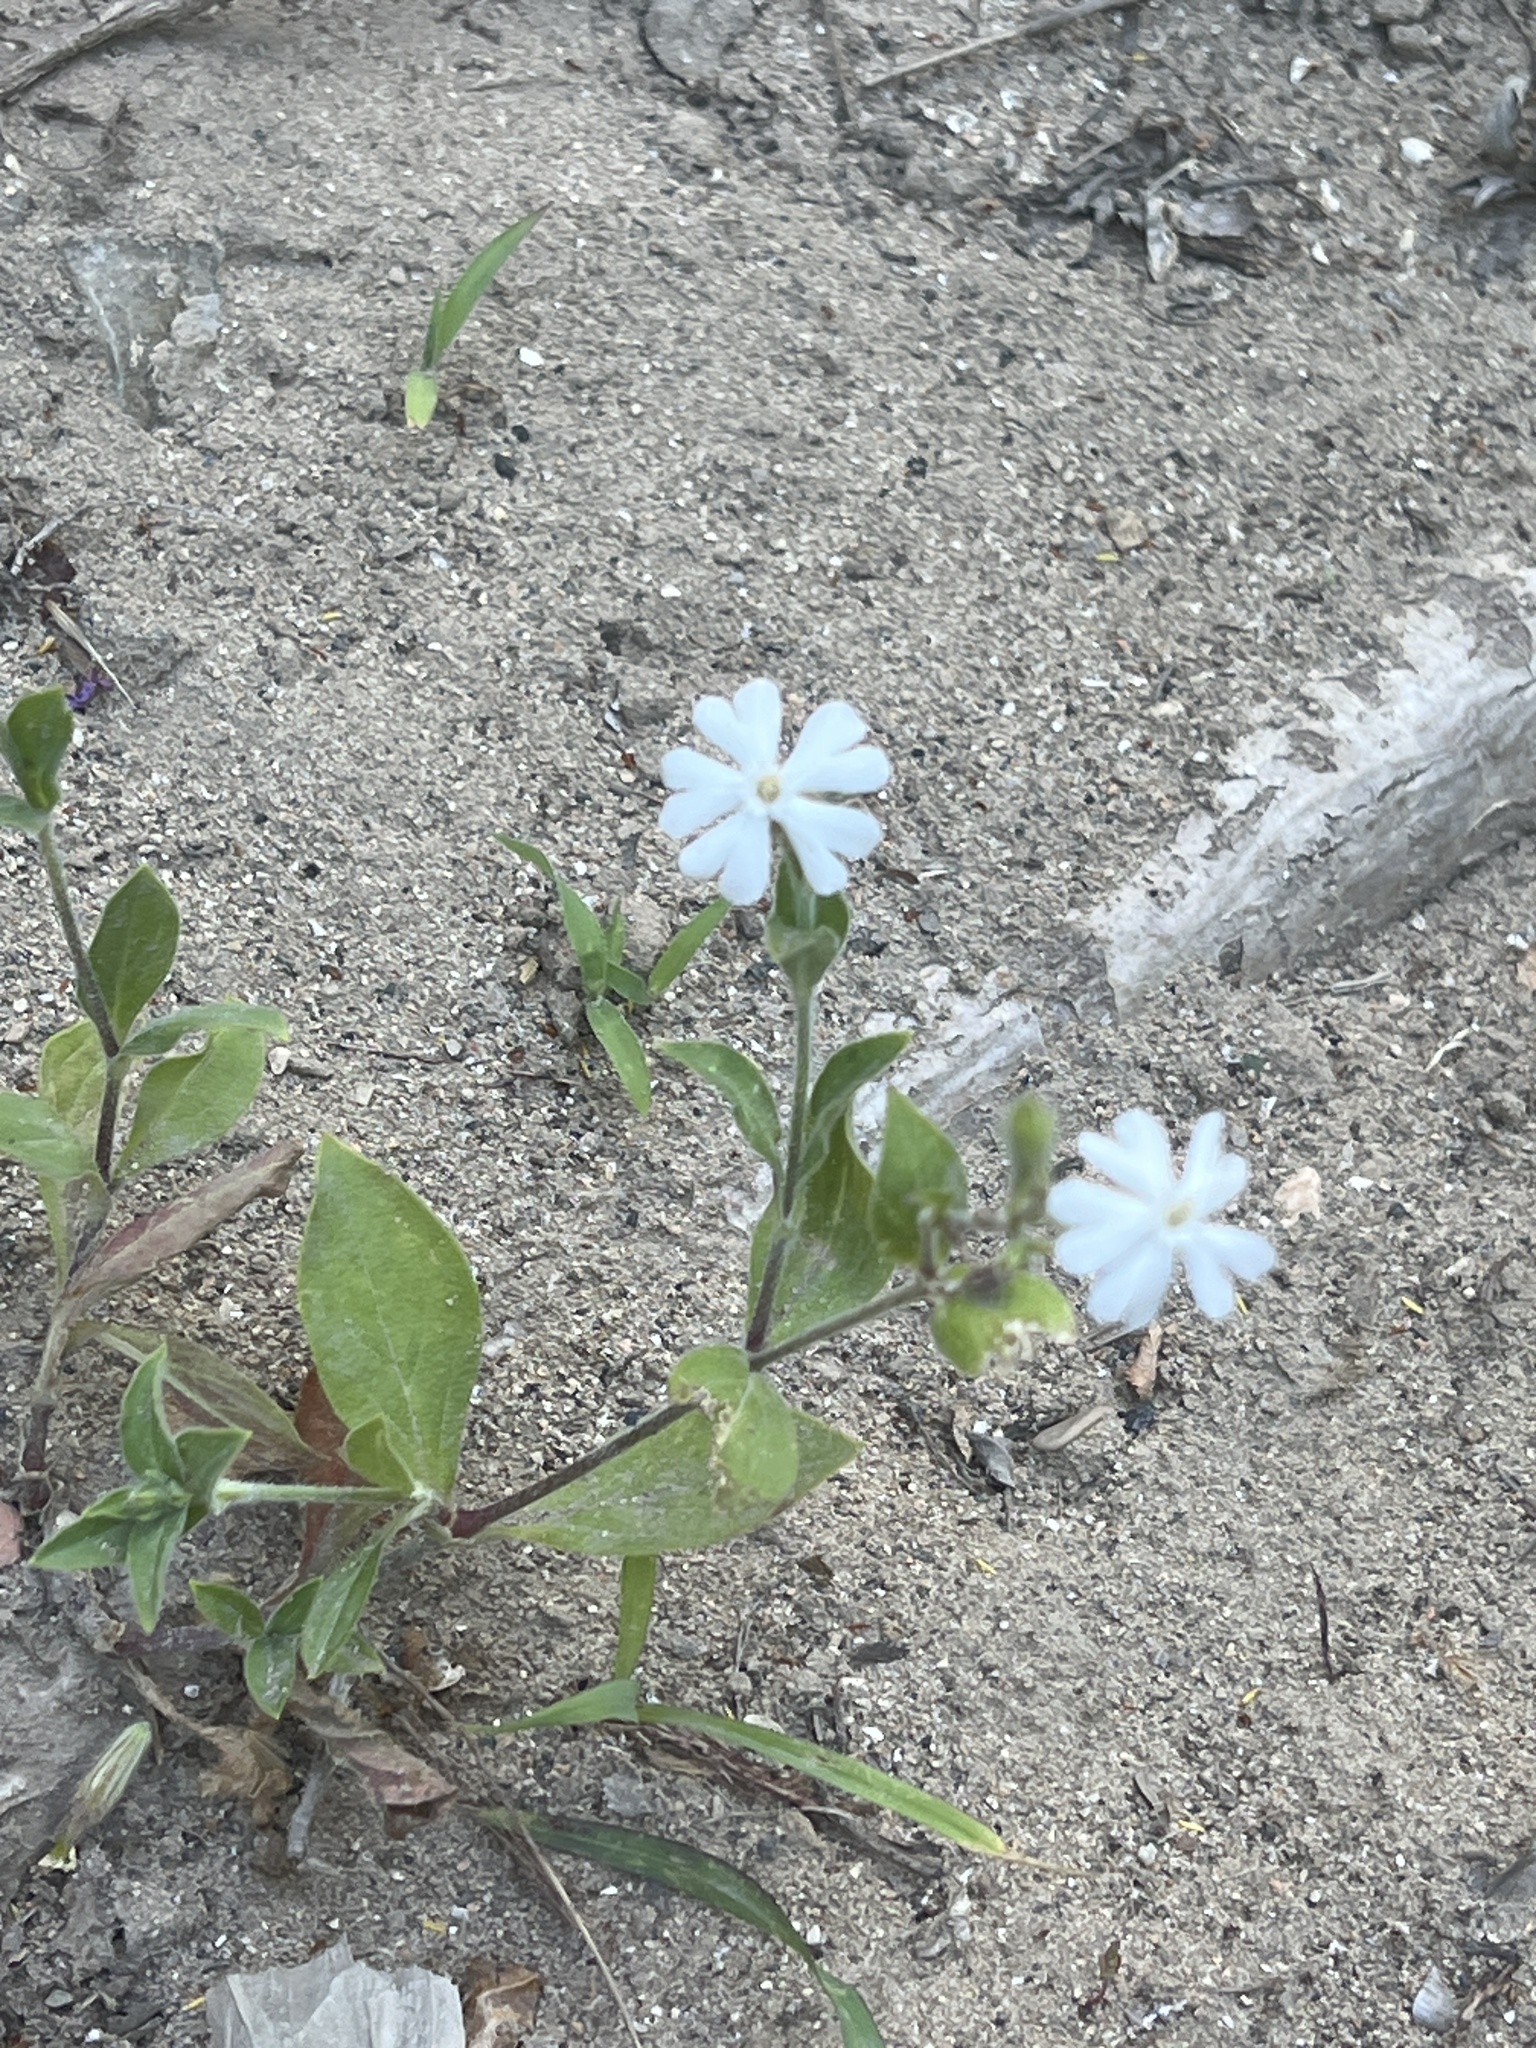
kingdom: Plantae
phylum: Tracheophyta
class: Magnoliopsida
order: Caryophyllales
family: Caryophyllaceae
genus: Silene
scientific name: Silene latifolia
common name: White campion
